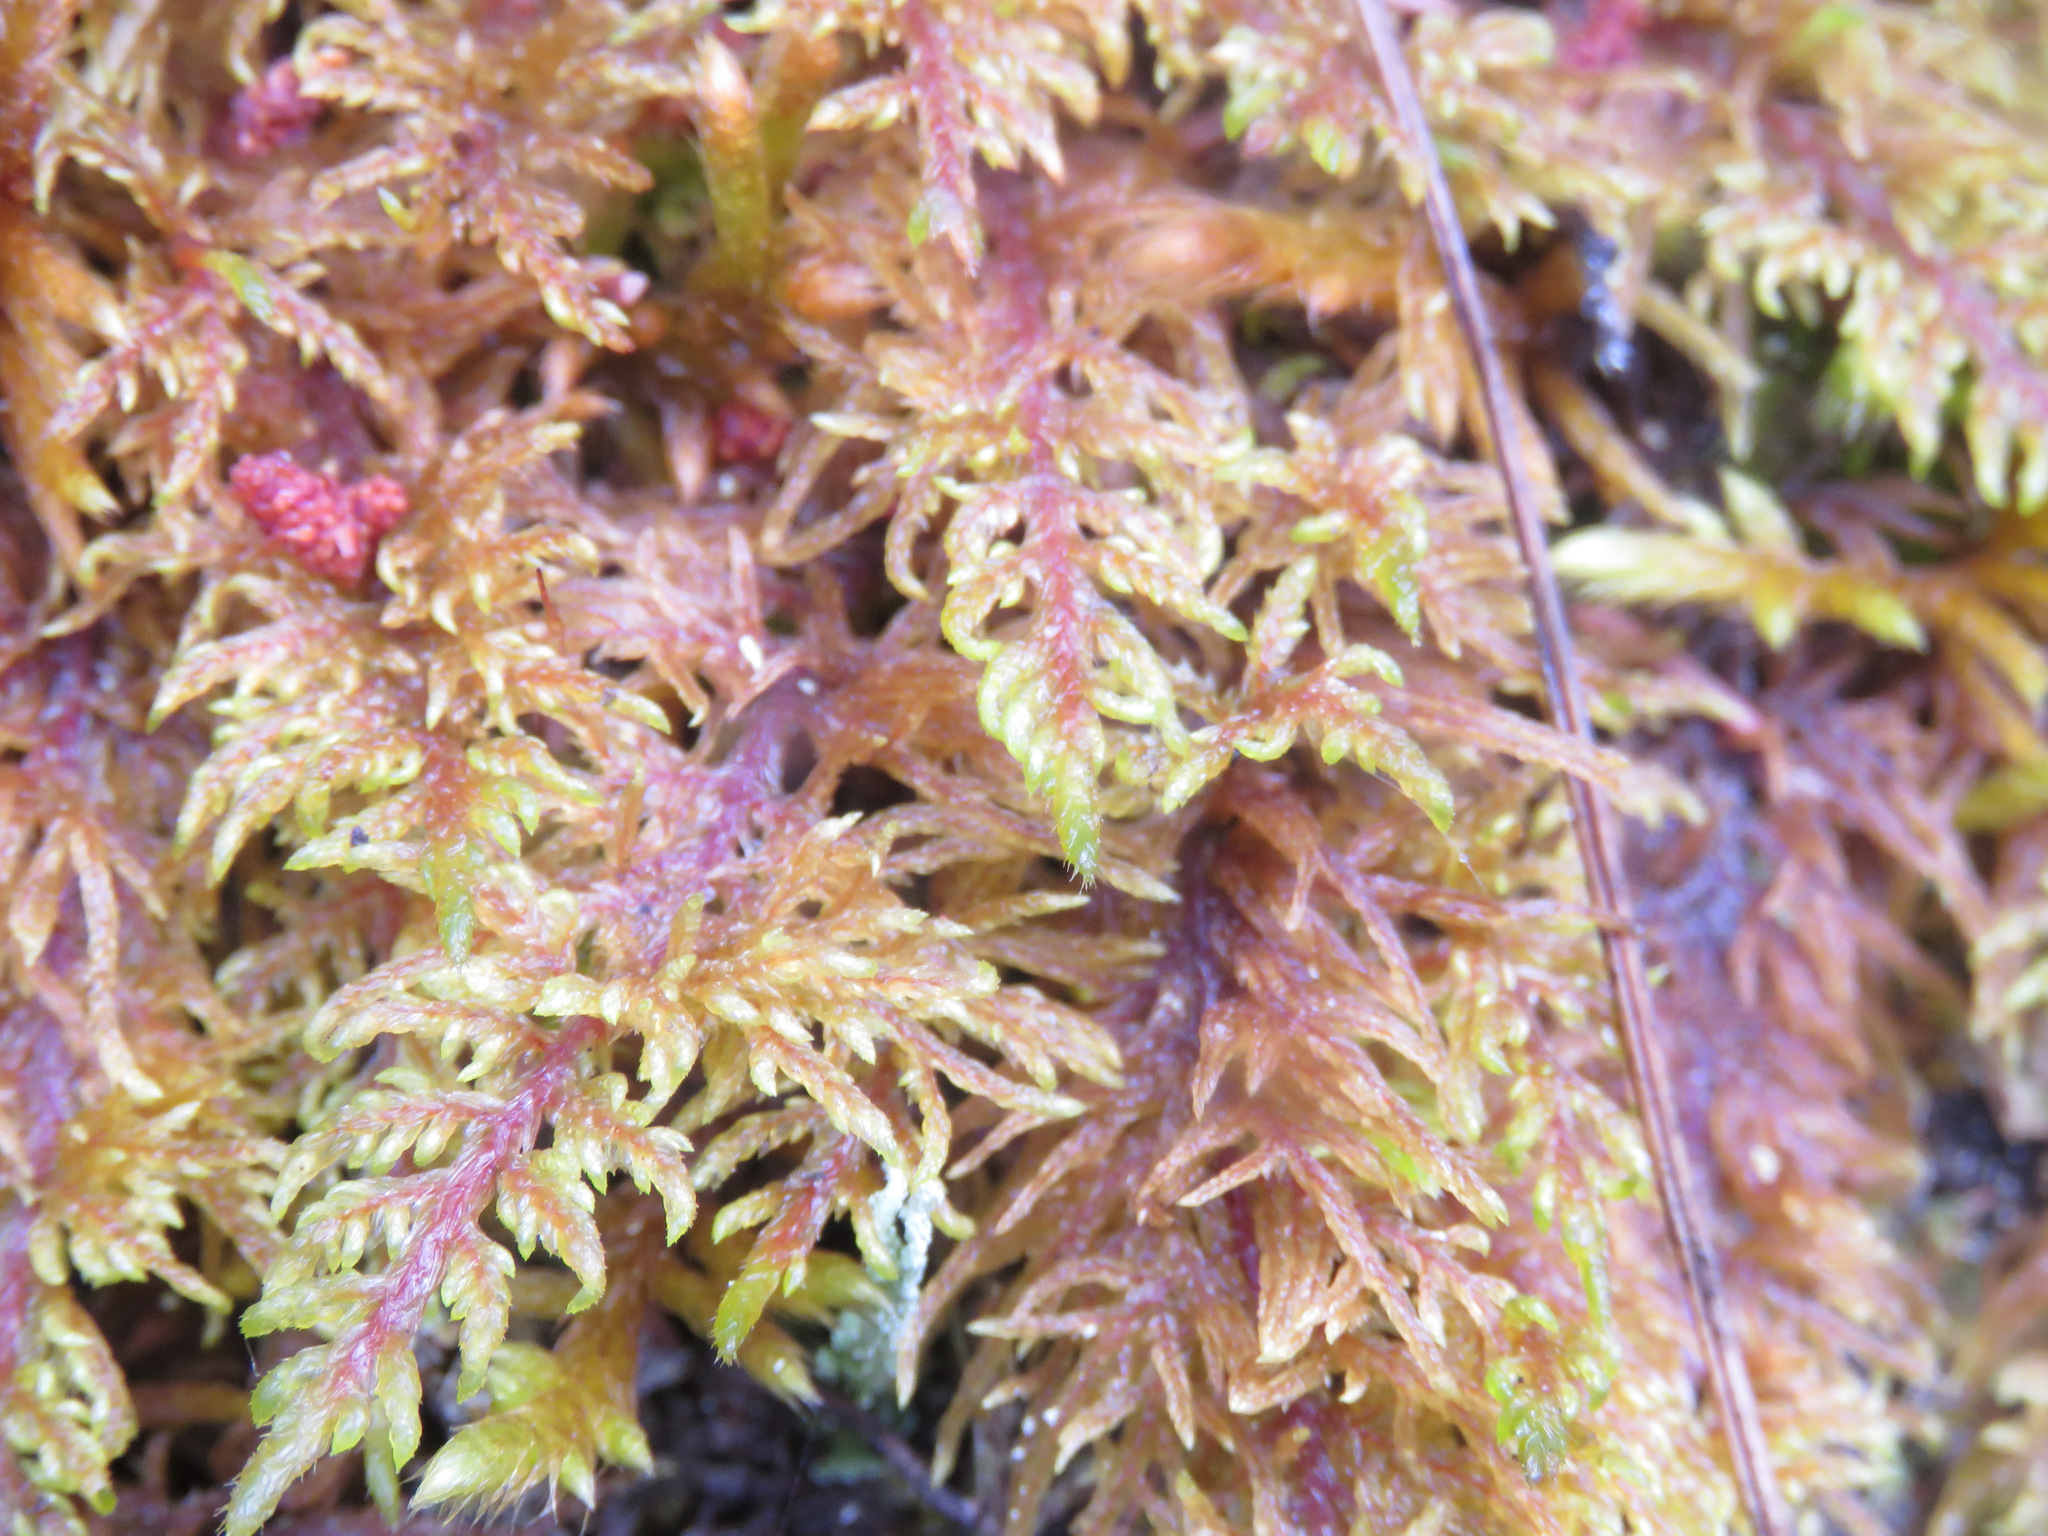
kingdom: Plantae
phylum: Bryophyta
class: Bryopsida
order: Hypnales
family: Hylocomiaceae
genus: Hylocomium
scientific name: Hylocomium splendens
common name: Stairstep moss
